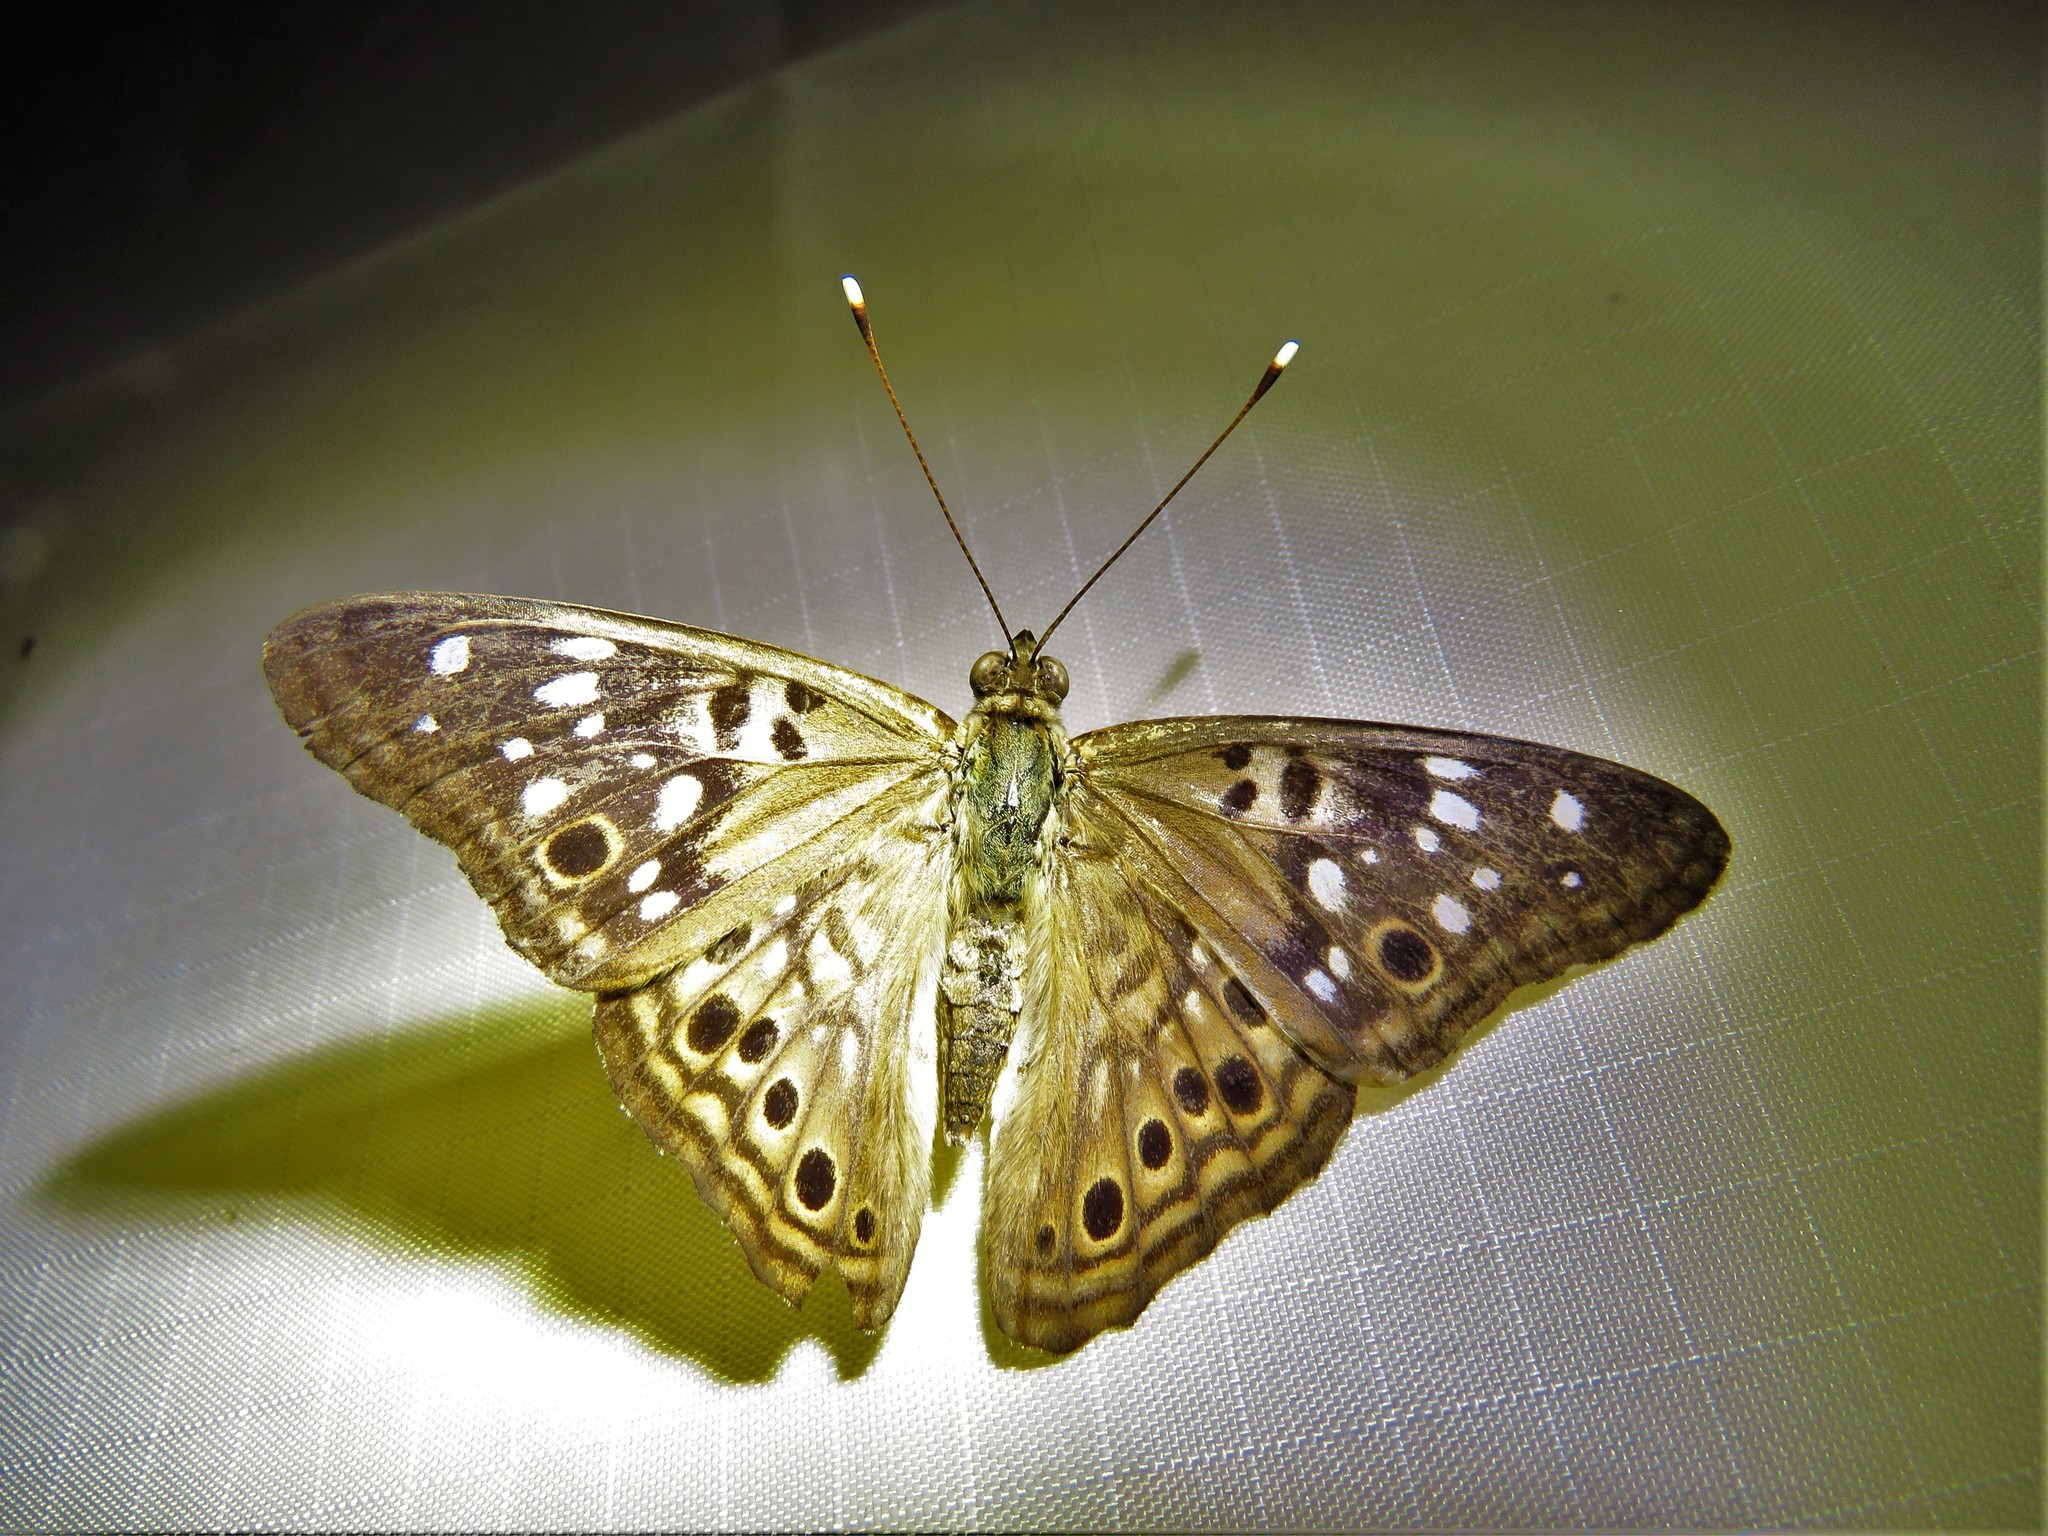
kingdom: Animalia
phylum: Arthropoda
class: Insecta
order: Lepidoptera
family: Nymphalidae
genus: Asterocampa
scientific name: Asterocampa celtis
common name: Hackberry emperor
